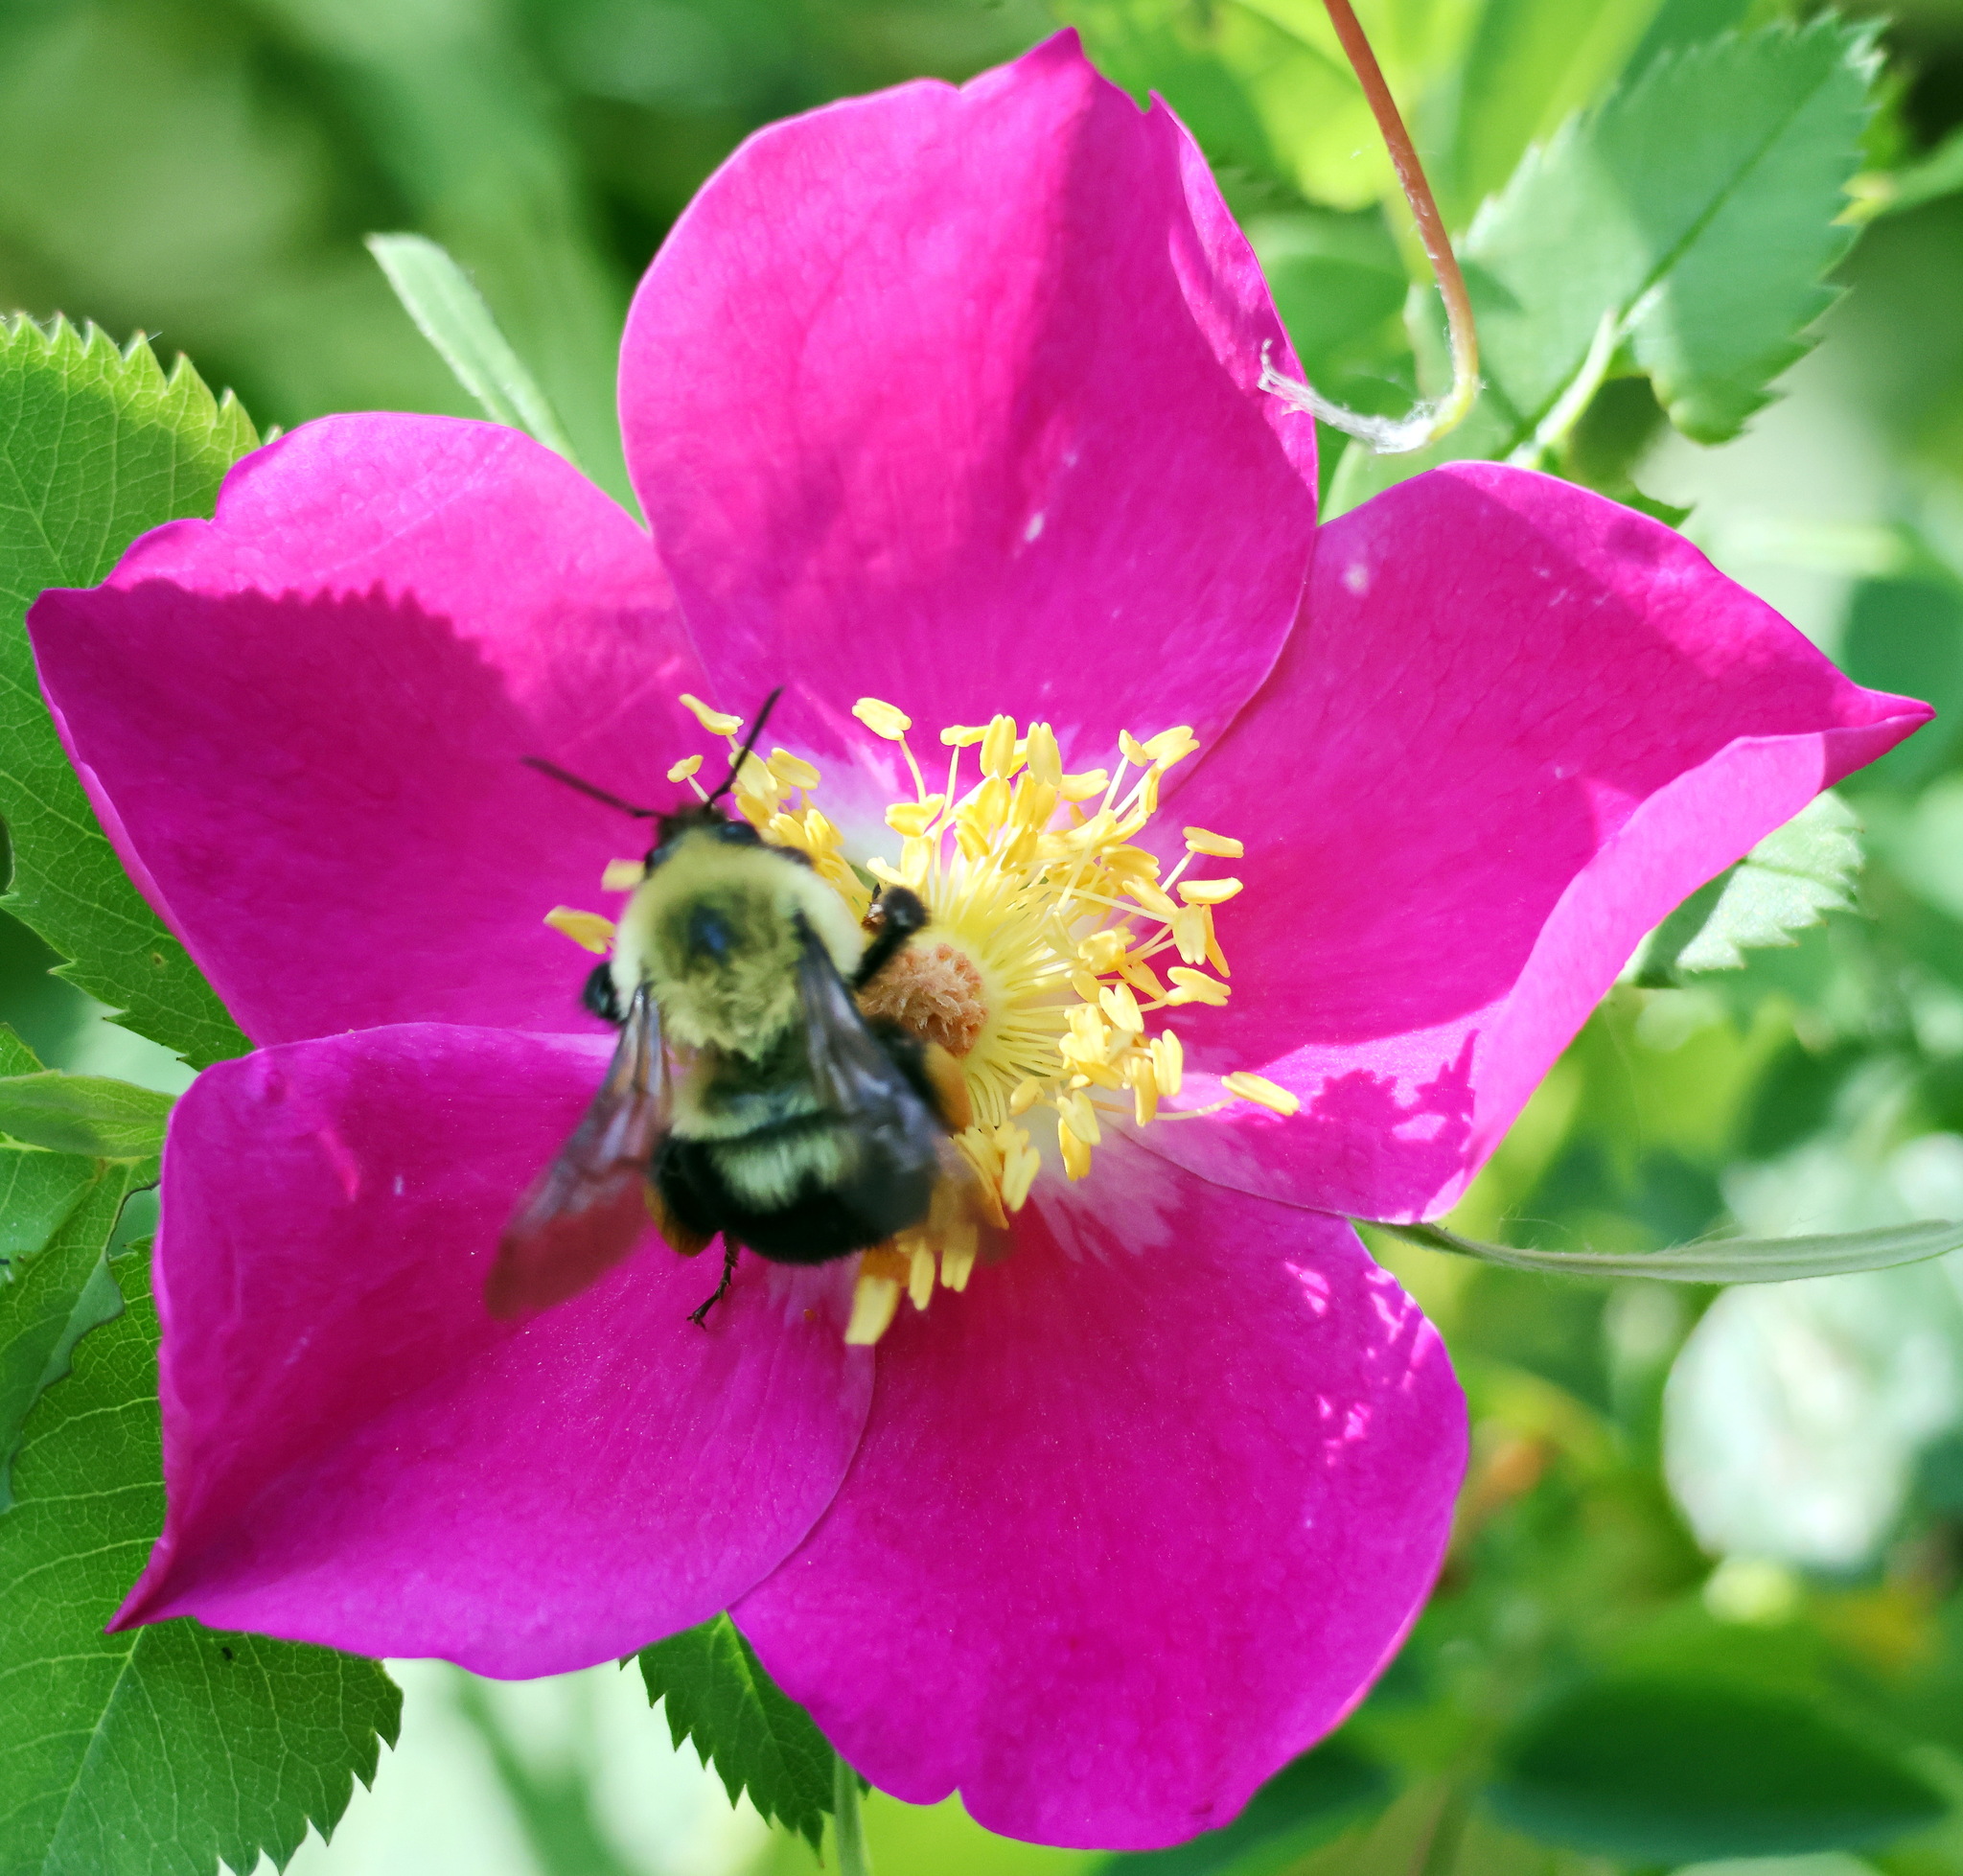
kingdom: Animalia
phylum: Arthropoda
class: Insecta
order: Hymenoptera
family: Apidae
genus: Bombus
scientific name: Bombus bimaculatus
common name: Two-spotted bumble bee
